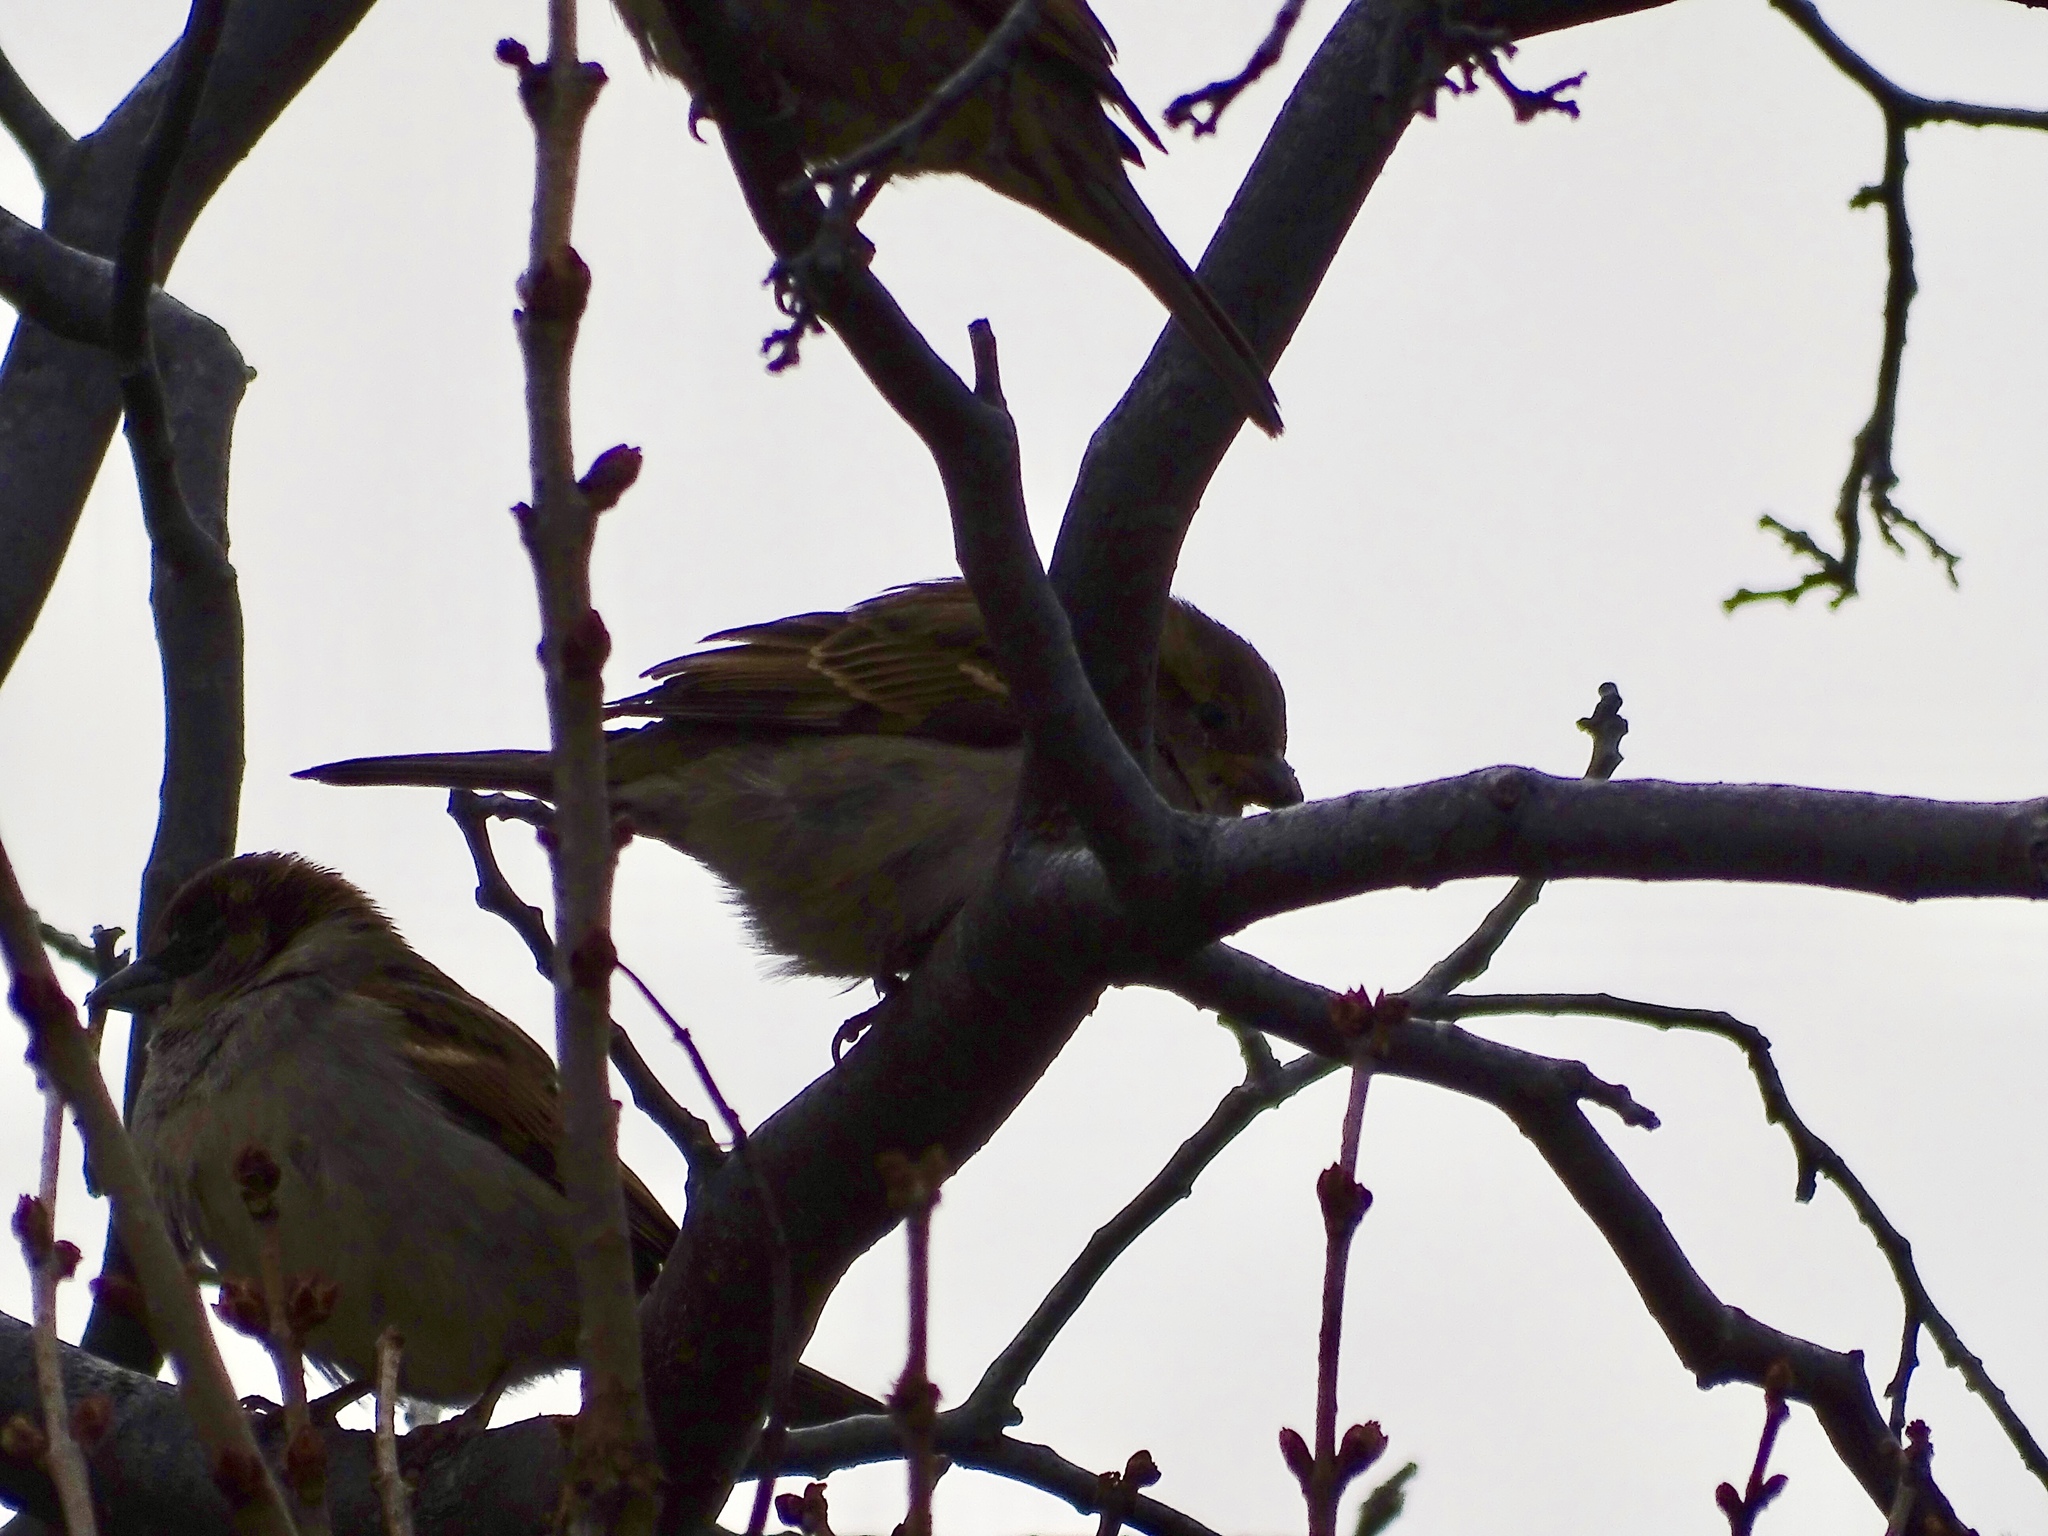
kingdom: Animalia
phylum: Chordata
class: Aves
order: Passeriformes
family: Passeridae
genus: Passer
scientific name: Passer domesticus
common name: House sparrow
